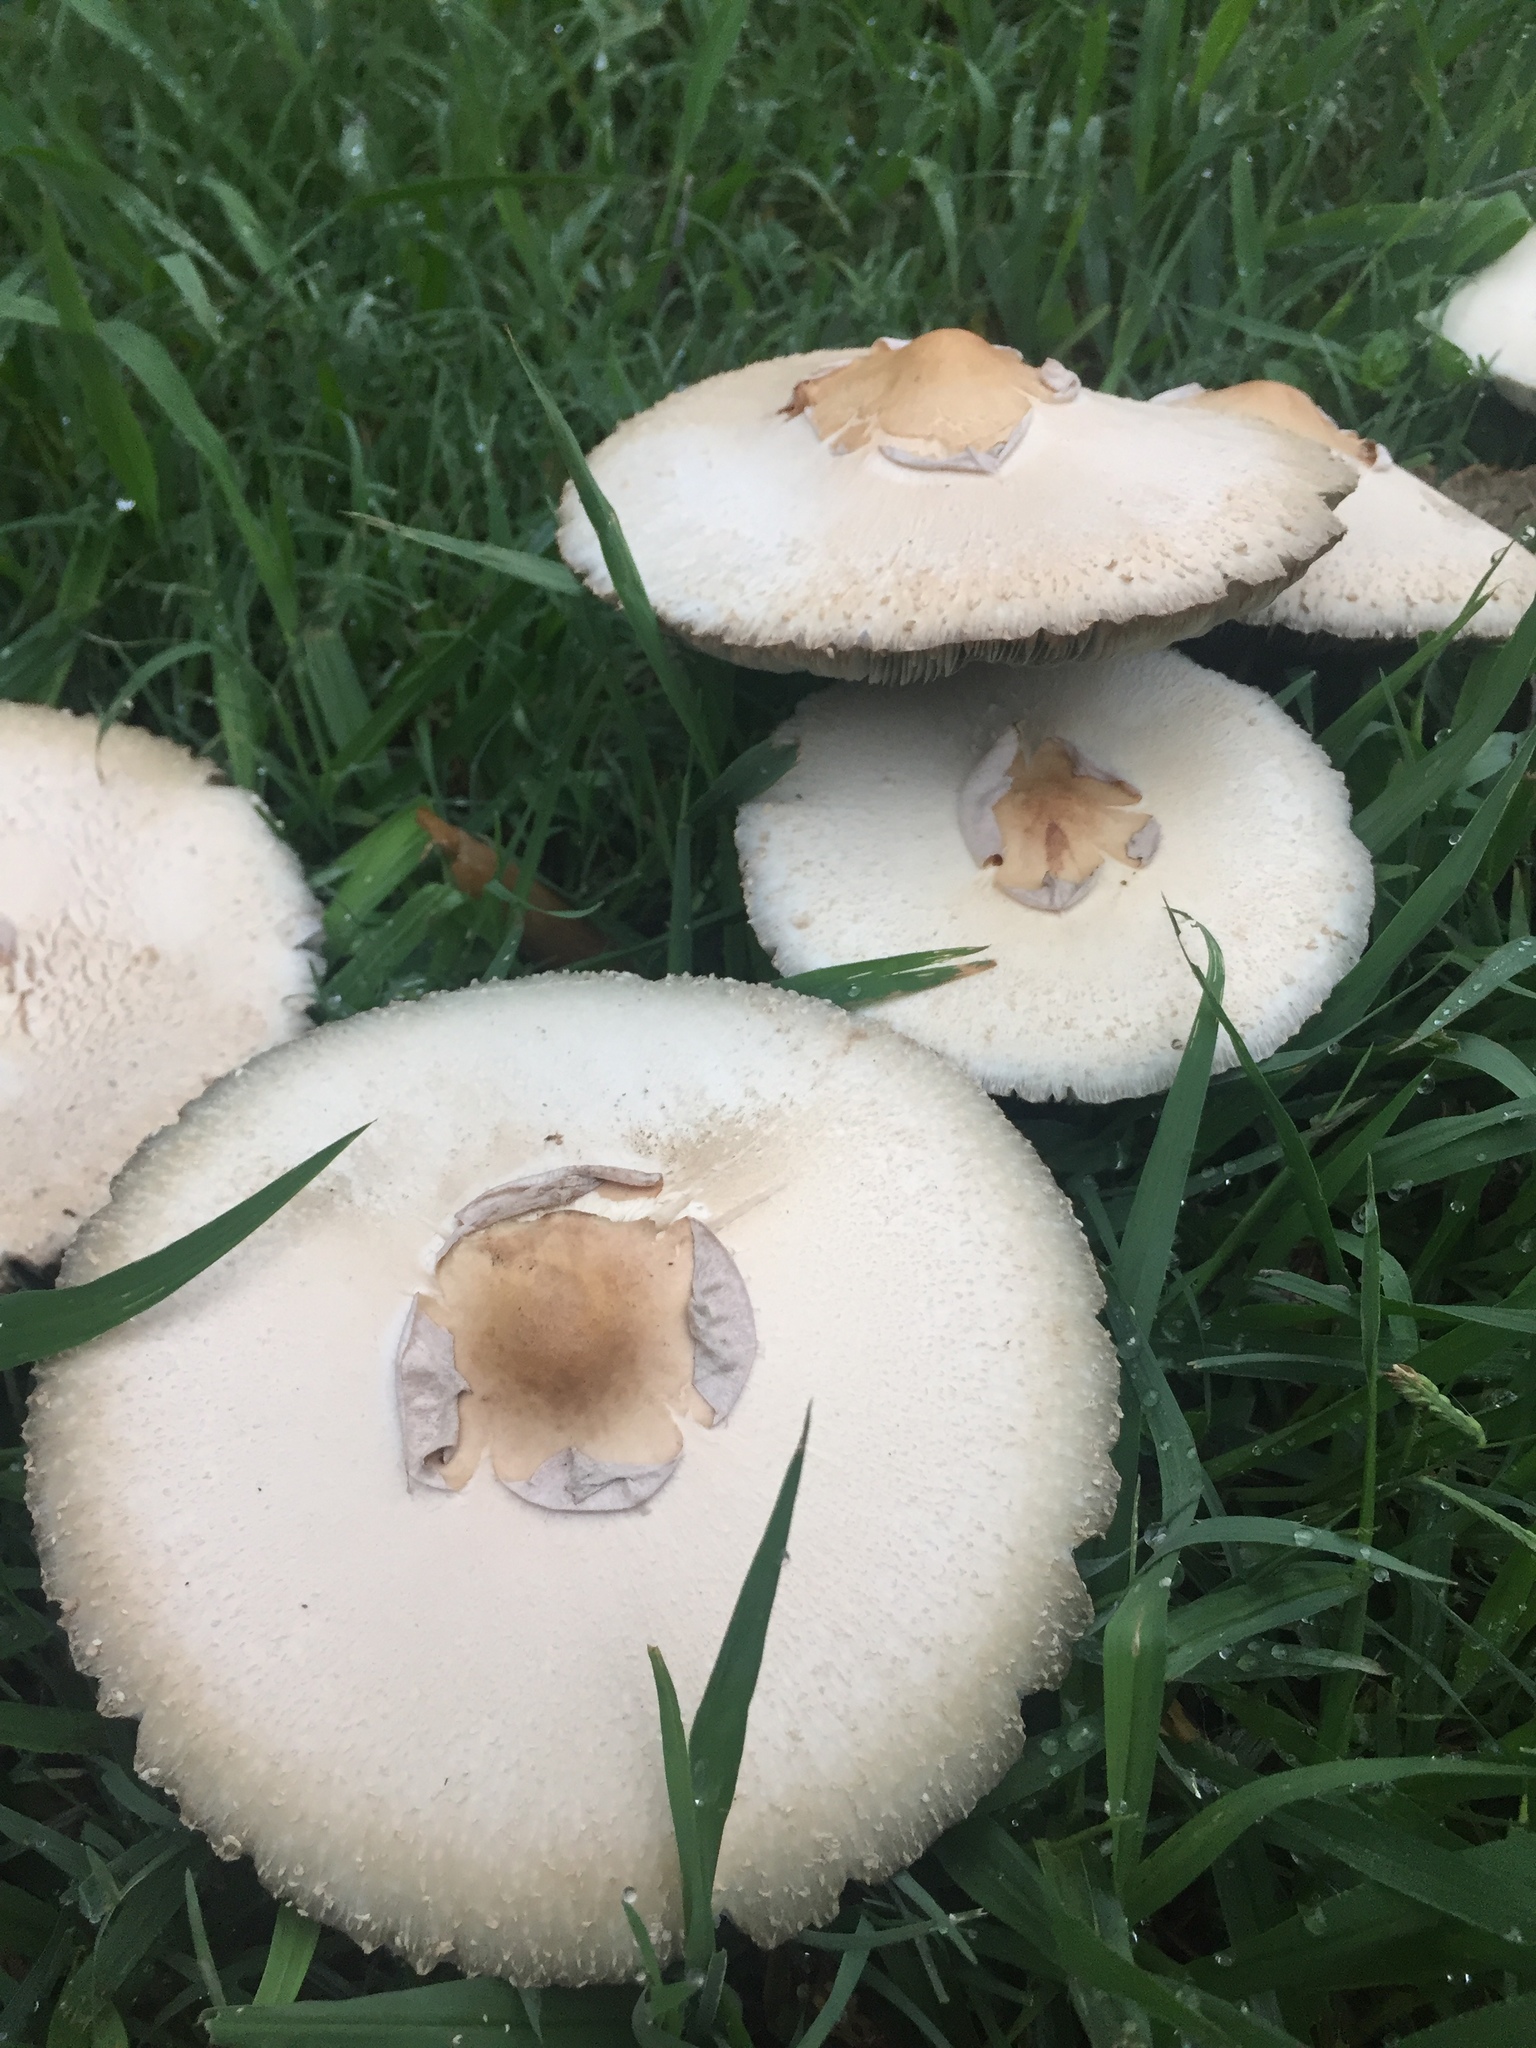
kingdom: Fungi
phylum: Basidiomycota
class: Agaricomycetes
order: Agaricales
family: Agaricaceae
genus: Chlorophyllum
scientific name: Chlorophyllum molybdites
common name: False parasol
